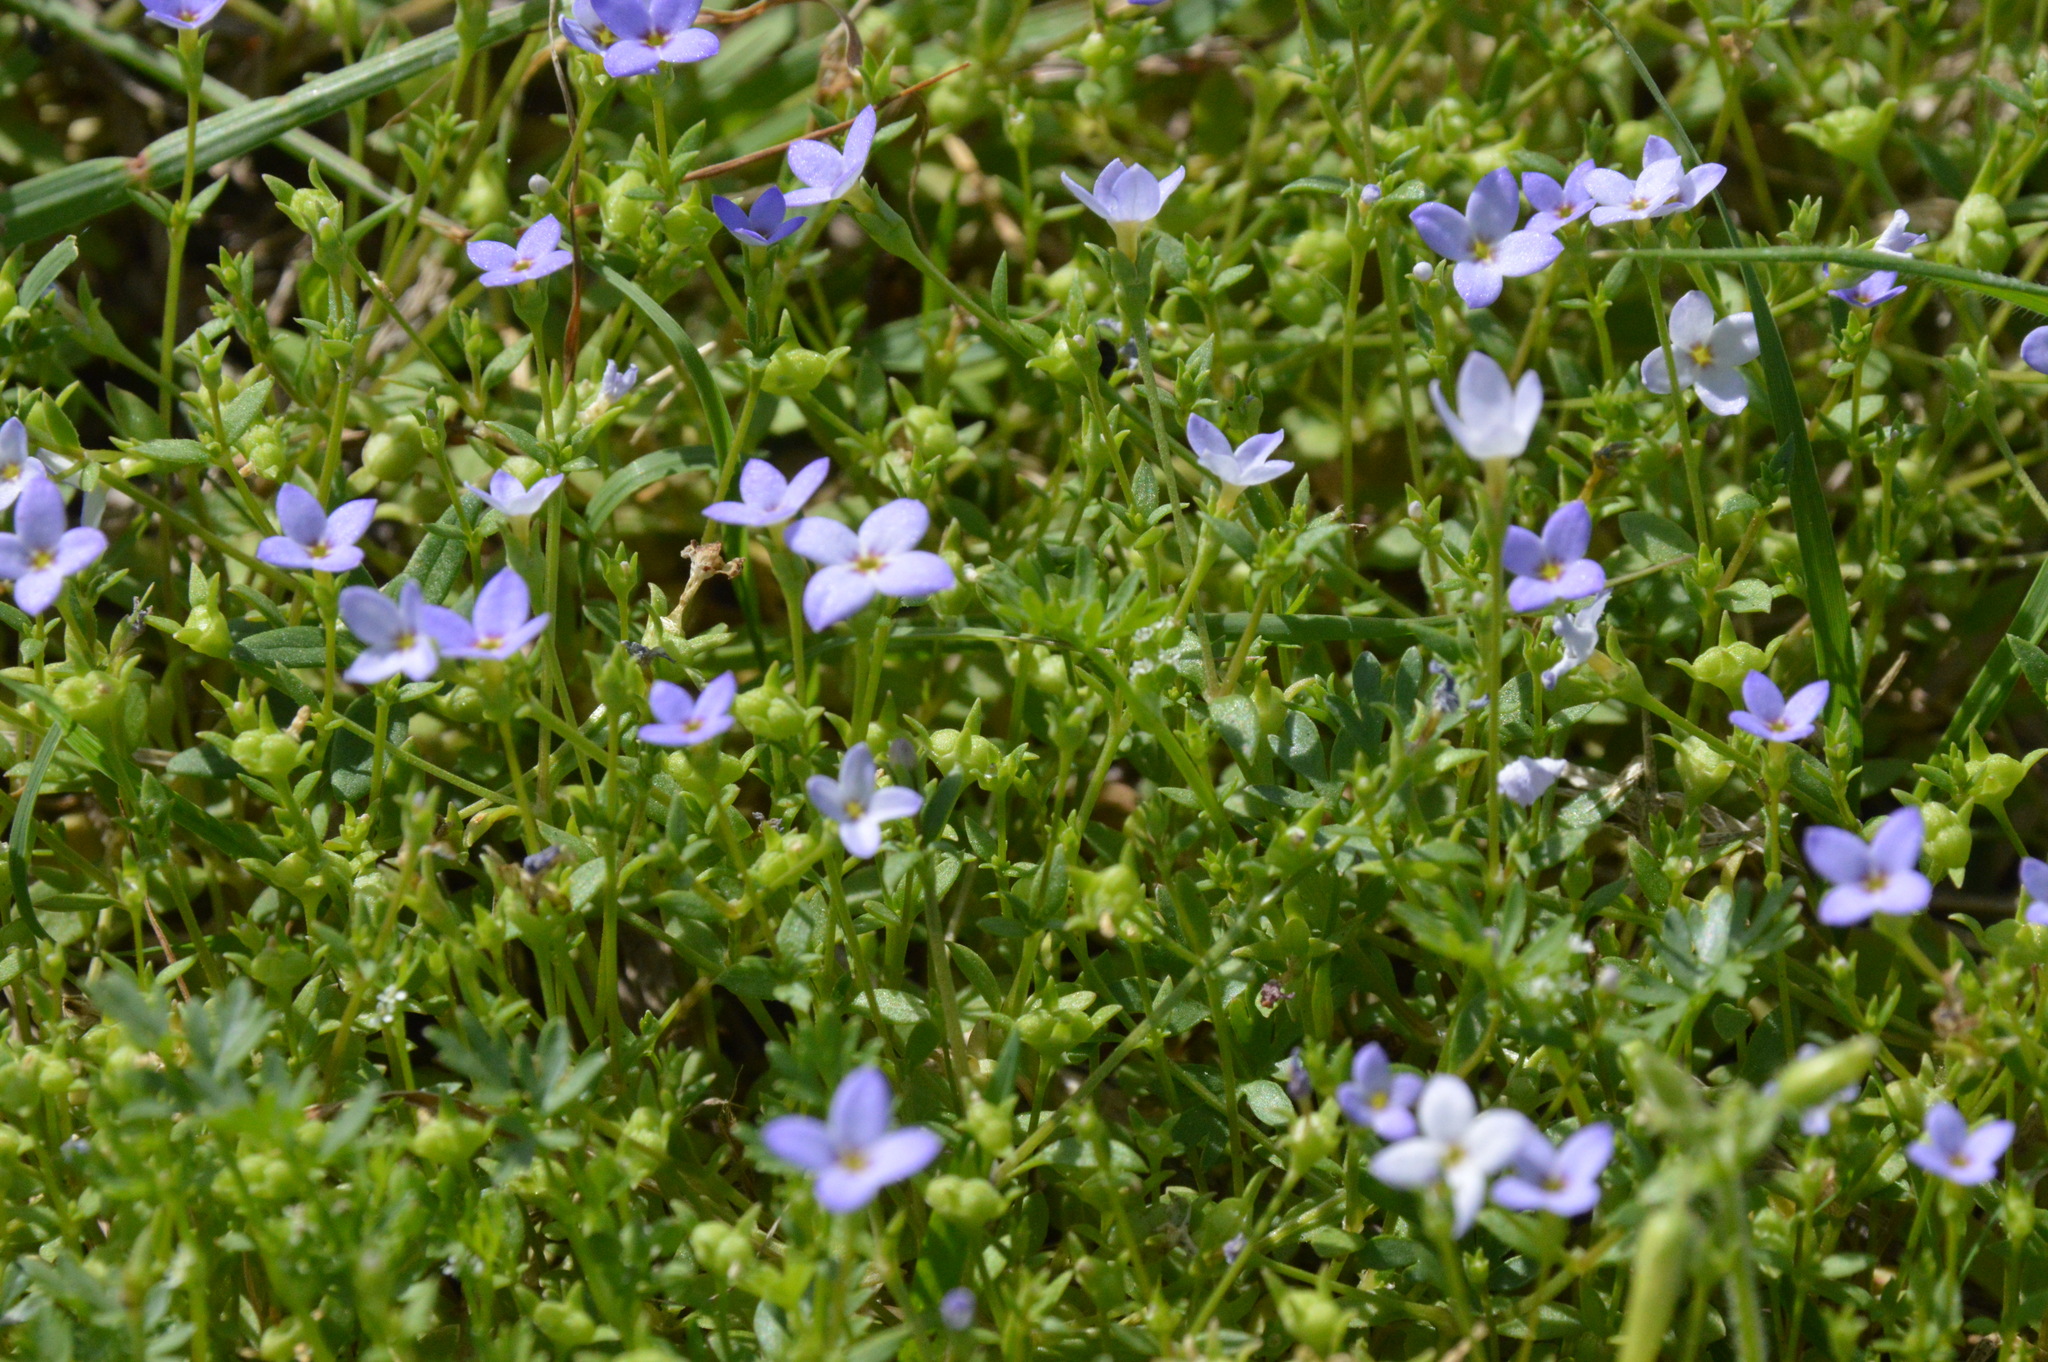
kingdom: Plantae
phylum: Tracheophyta
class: Magnoliopsida
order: Gentianales
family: Rubiaceae
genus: Houstonia
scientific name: Houstonia pusilla
